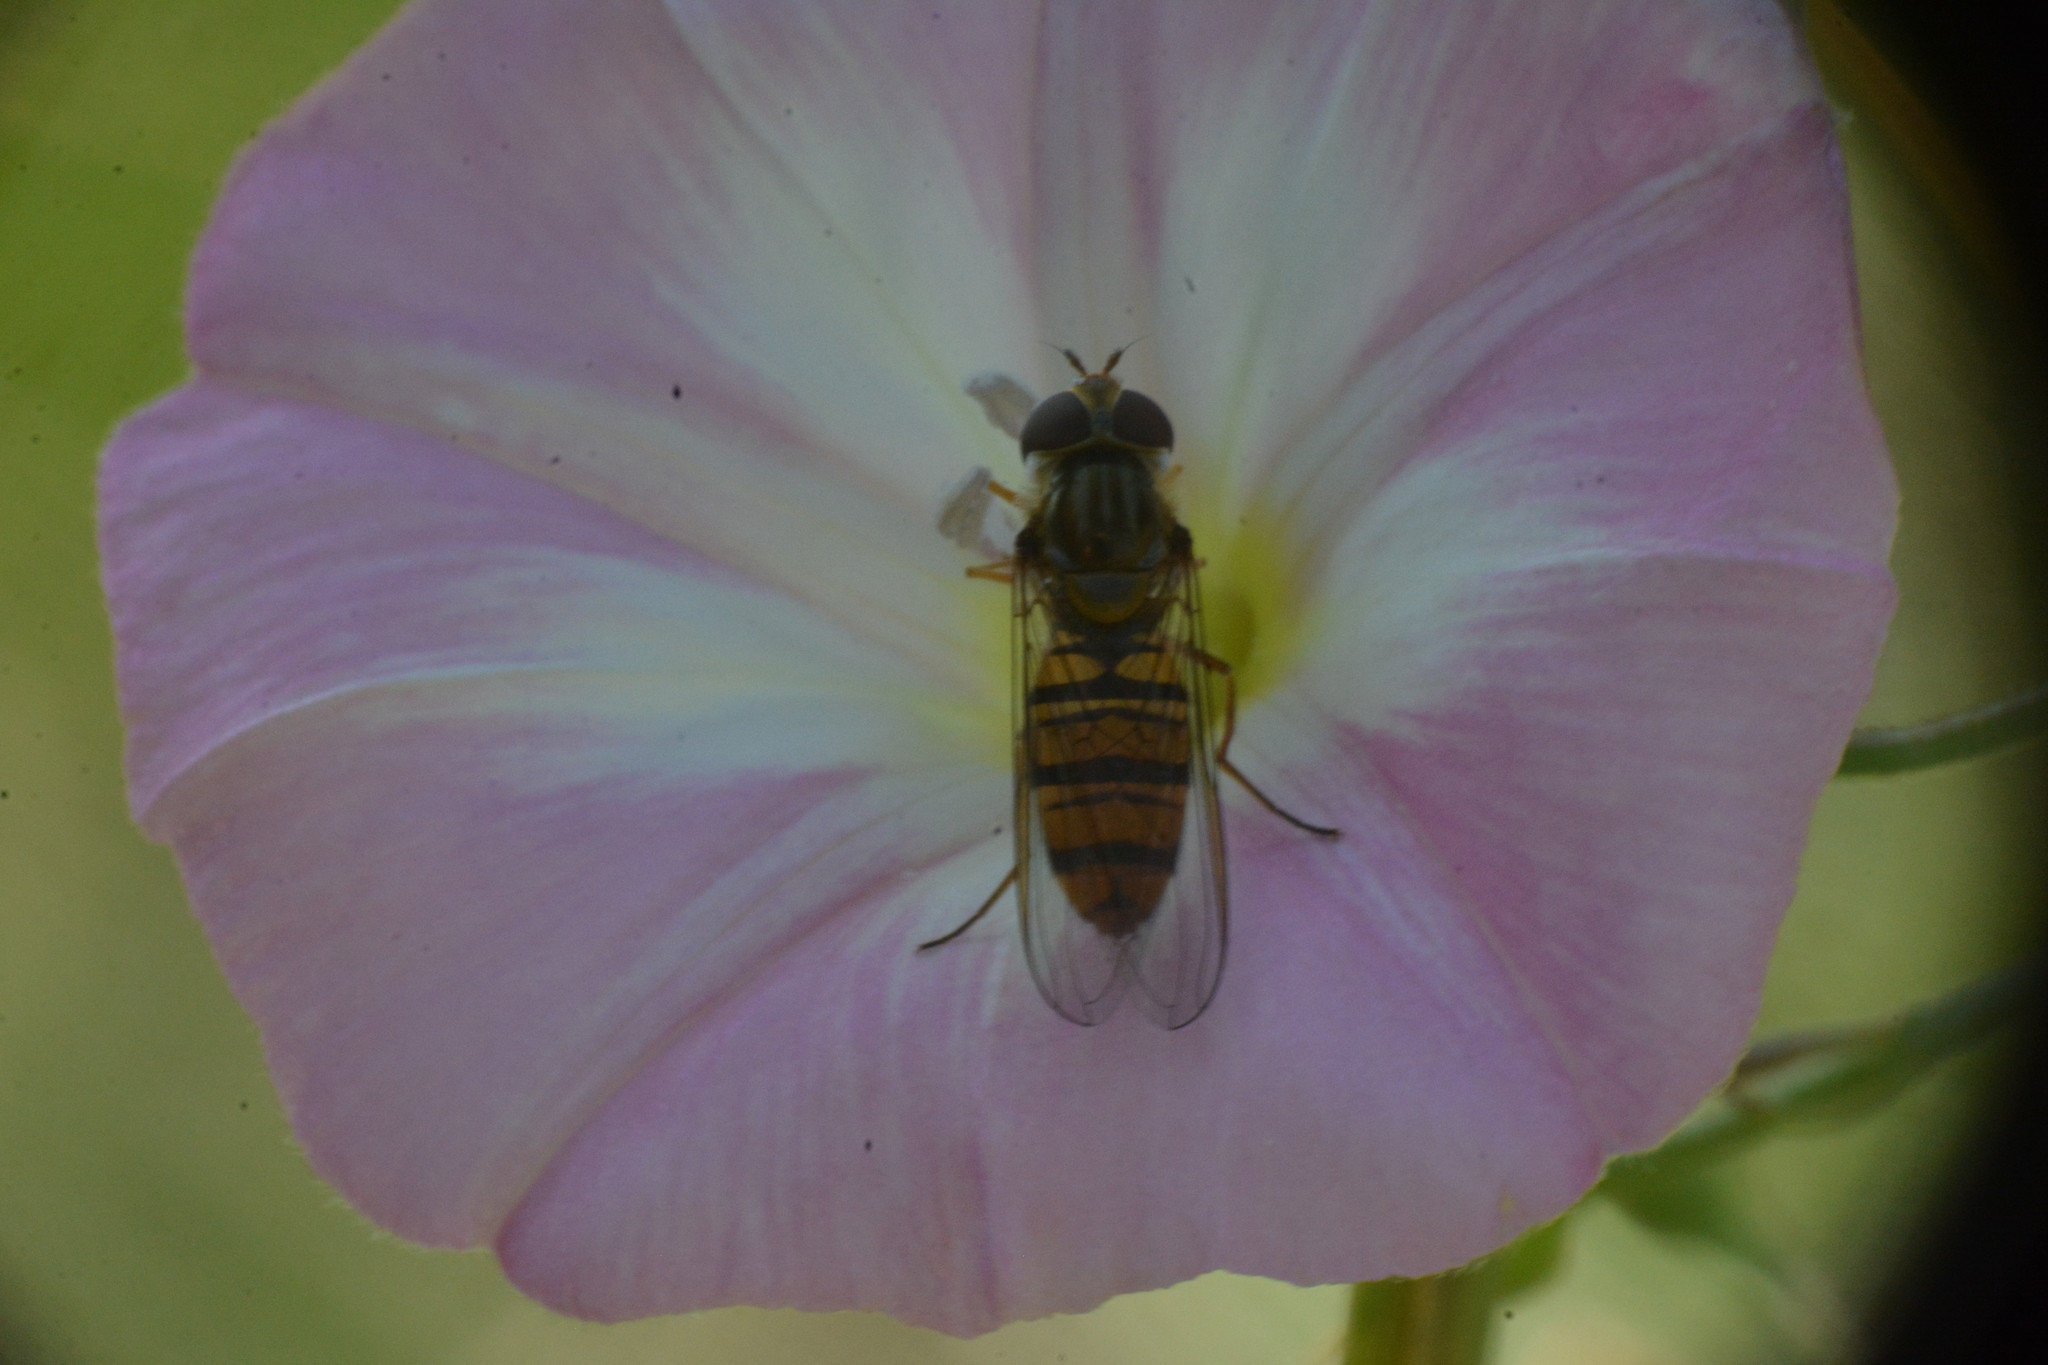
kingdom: Animalia
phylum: Arthropoda
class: Insecta
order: Diptera
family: Syrphidae
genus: Episyrphus
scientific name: Episyrphus balteatus
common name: Marmalade hoverfly
